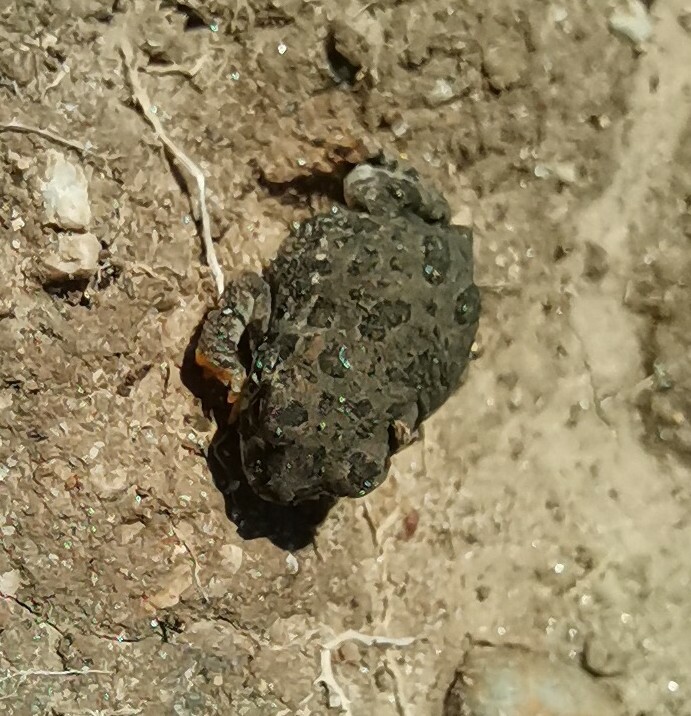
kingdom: Animalia
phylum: Chordata
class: Amphibia
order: Anura
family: Bufonidae
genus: Anaxyrus
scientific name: Anaxyrus compactilis
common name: Plateau toad
